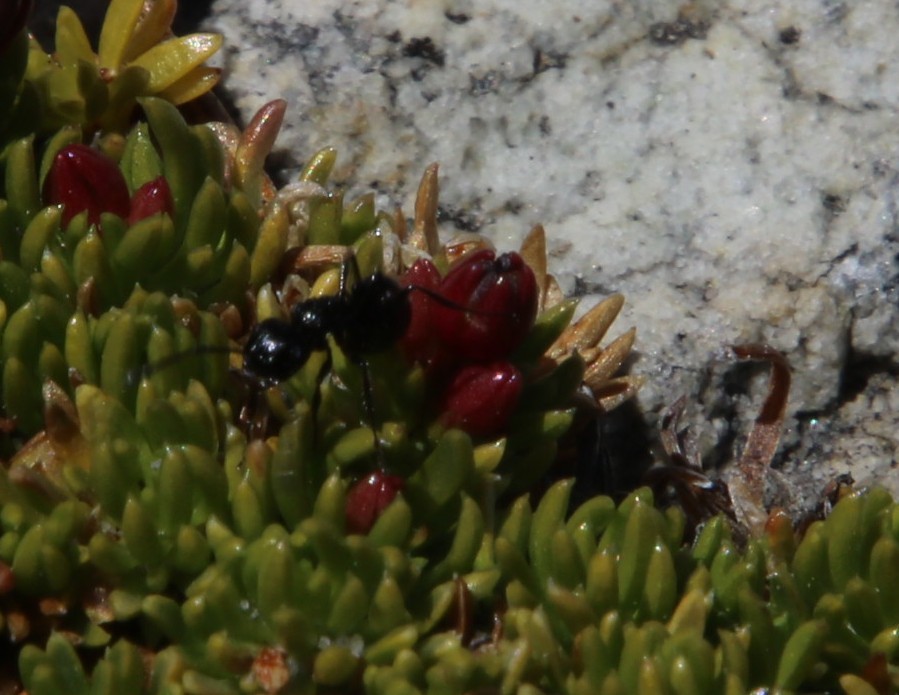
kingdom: Animalia
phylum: Arthropoda
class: Insecta
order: Hymenoptera
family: Formicidae
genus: Myrmicaria
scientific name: Myrmicaria nigra
